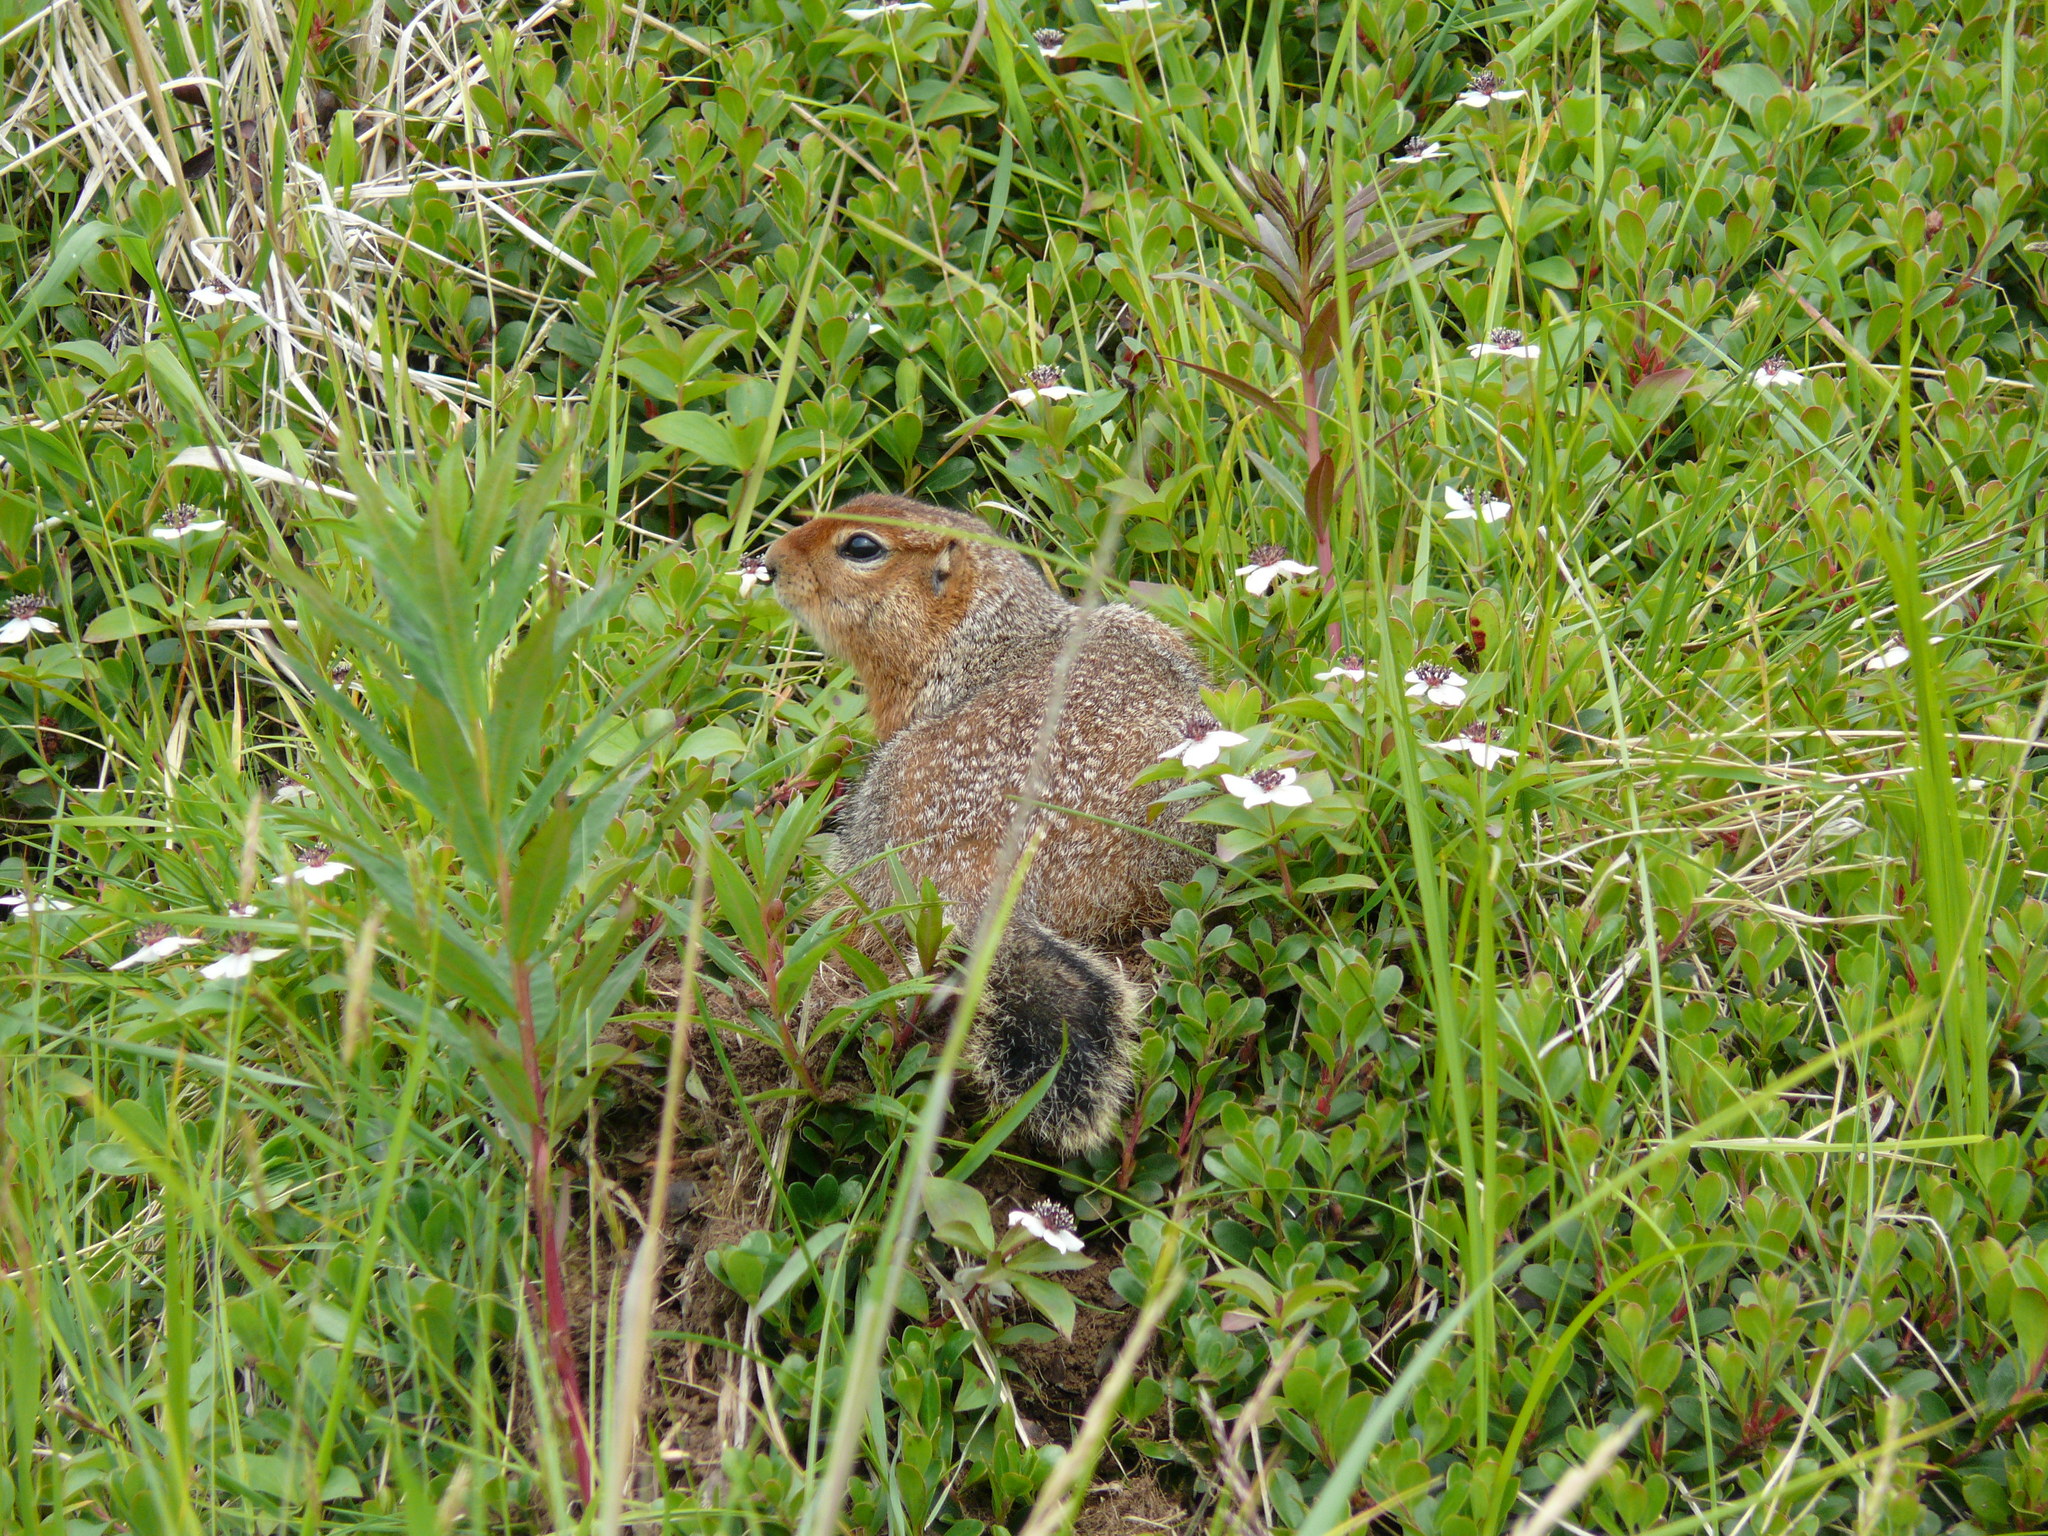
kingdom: Animalia
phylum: Chordata
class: Mammalia
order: Rodentia
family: Sciuridae
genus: Urocitellus
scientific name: Urocitellus parryii
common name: Arctic ground squirrel
